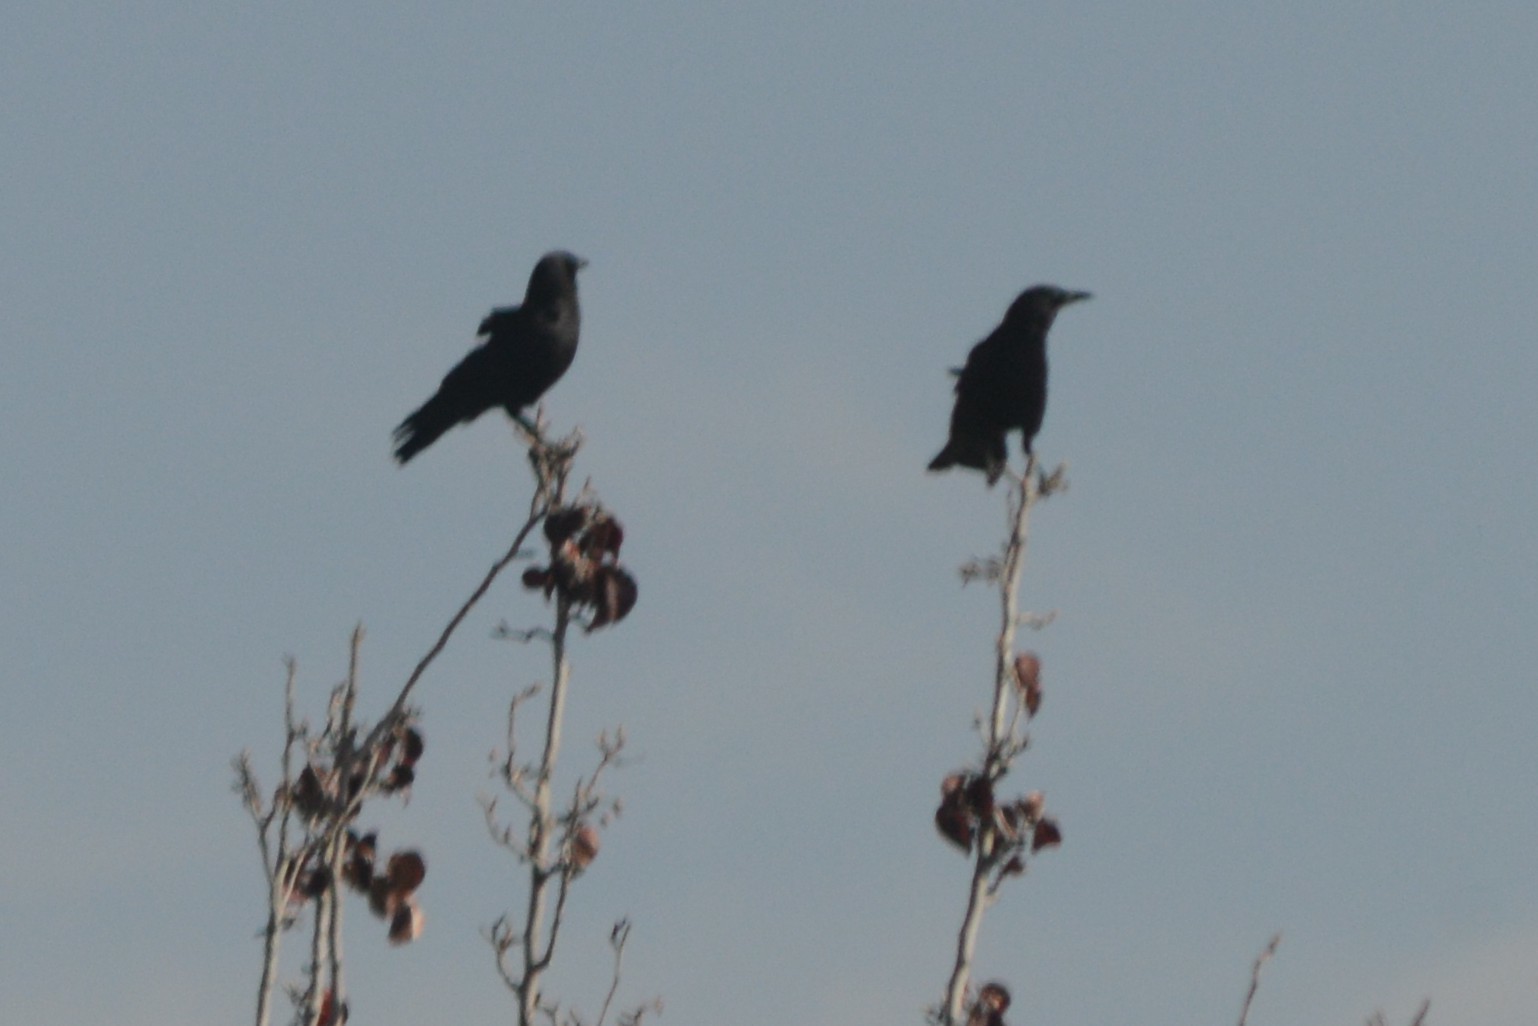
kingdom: Animalia
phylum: Chordata
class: Aves
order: Passeriformes
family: Corvidae
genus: Corvus
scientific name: Corvus brachyrhynchos
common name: American crow
